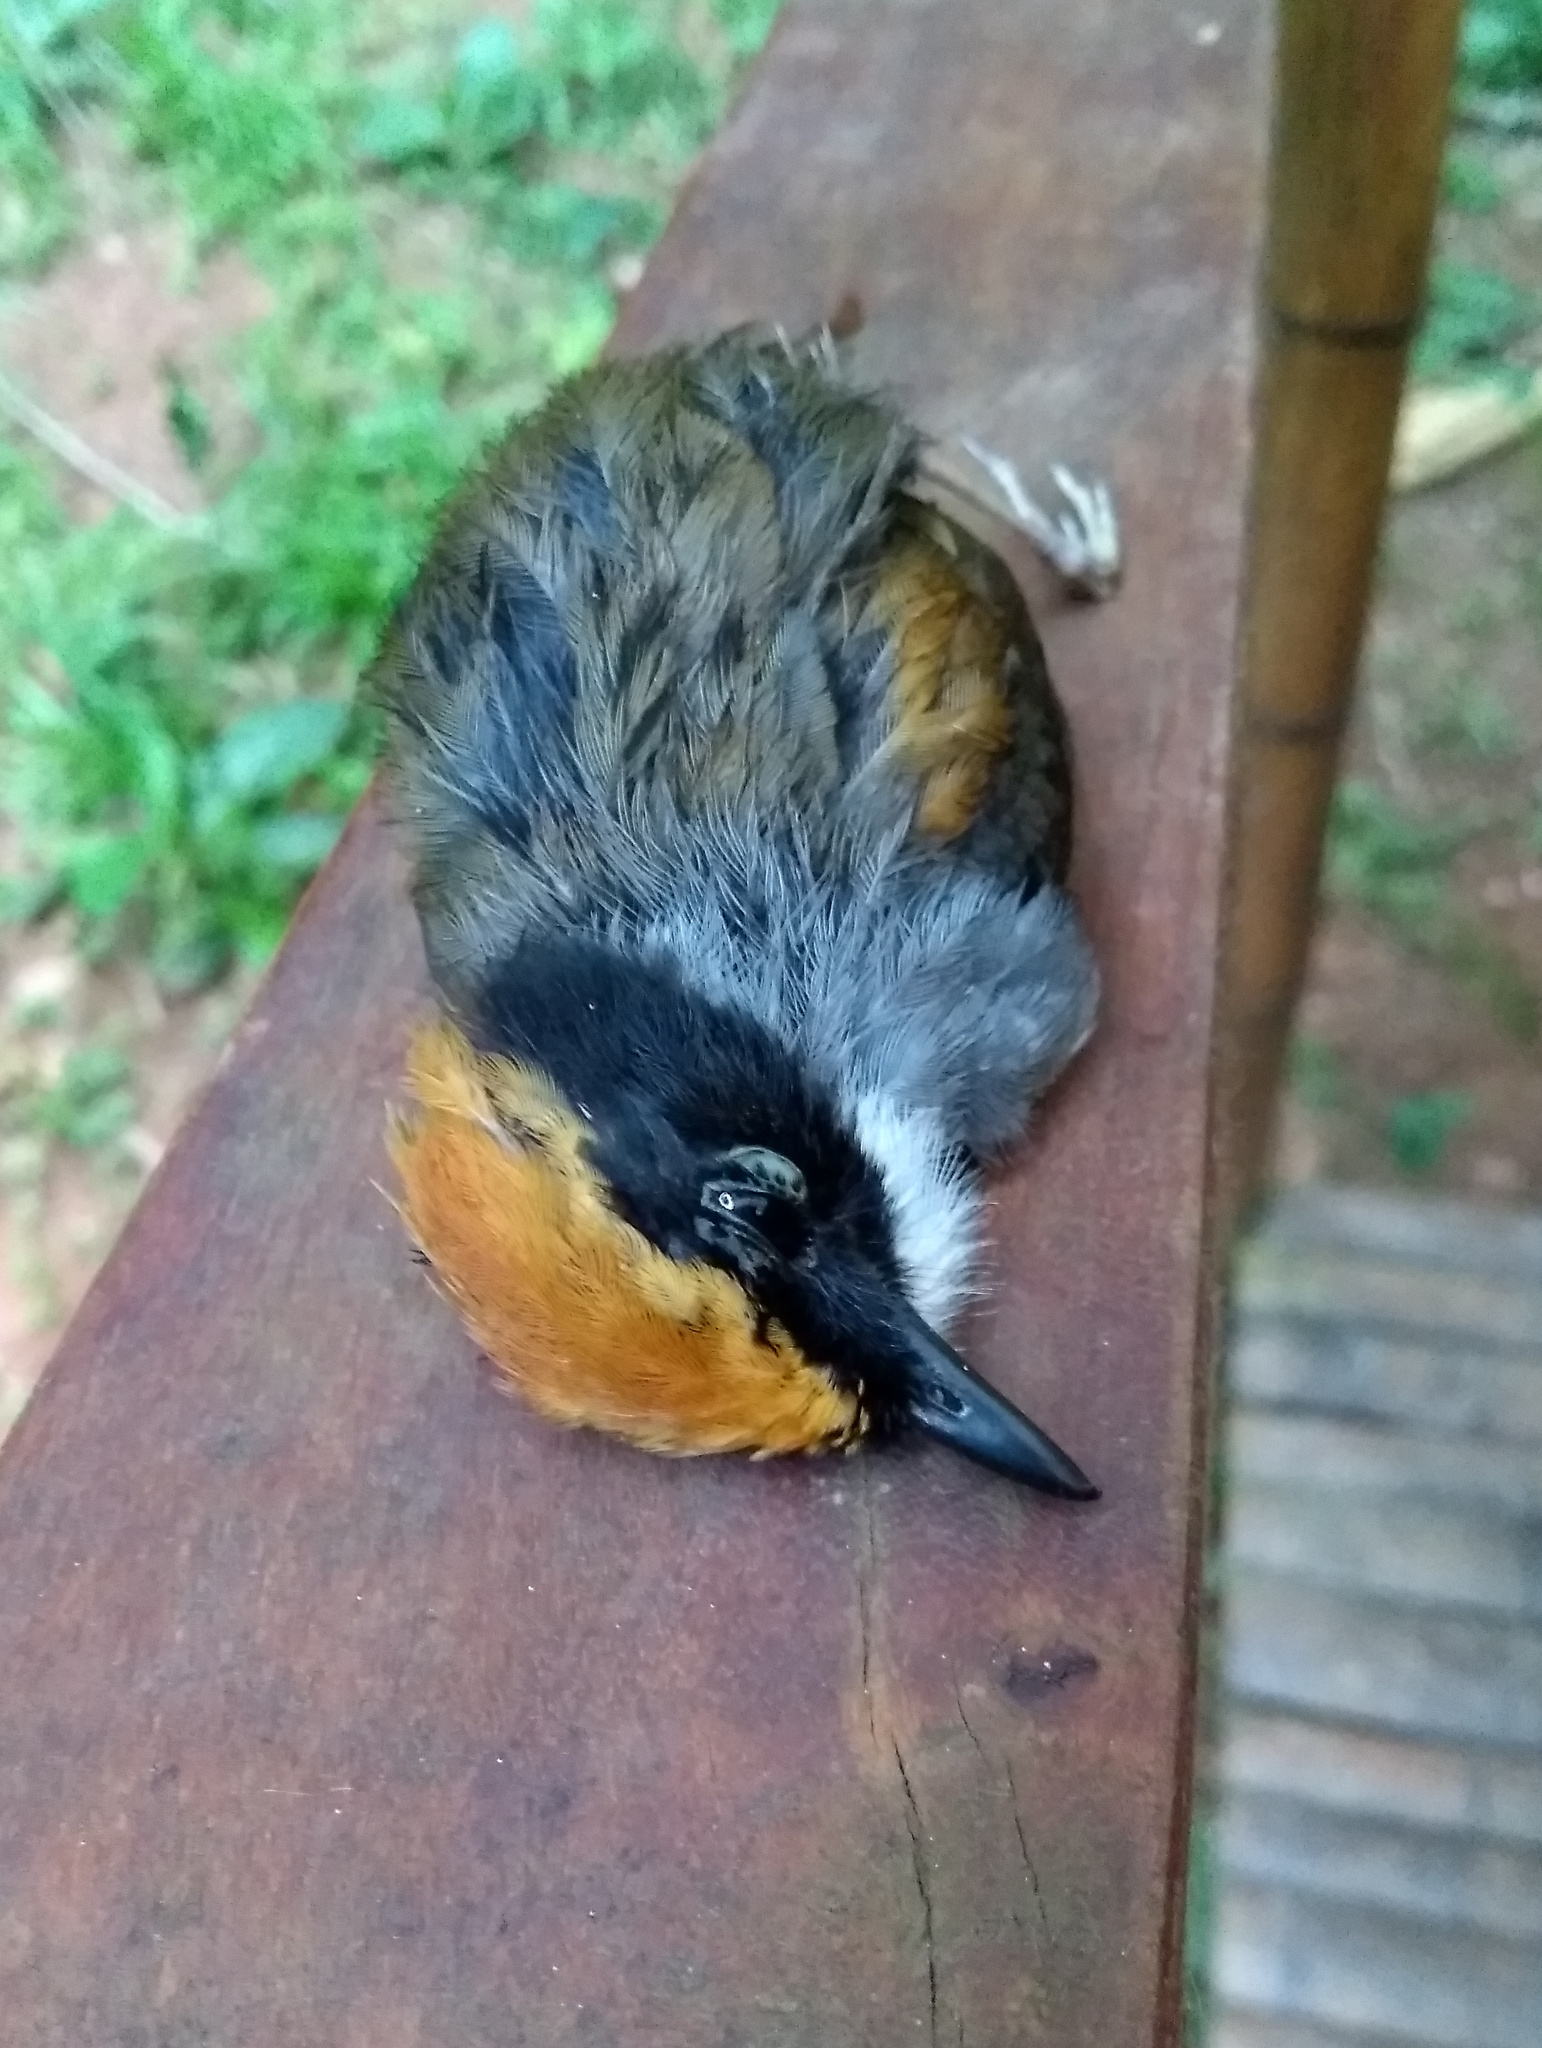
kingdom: Animalia
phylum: Chordata
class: Aves
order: Passeriformes
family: Conopophagidae
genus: Conopophaga
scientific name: Conopophaga melanops
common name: Black-cheeked gnateater
